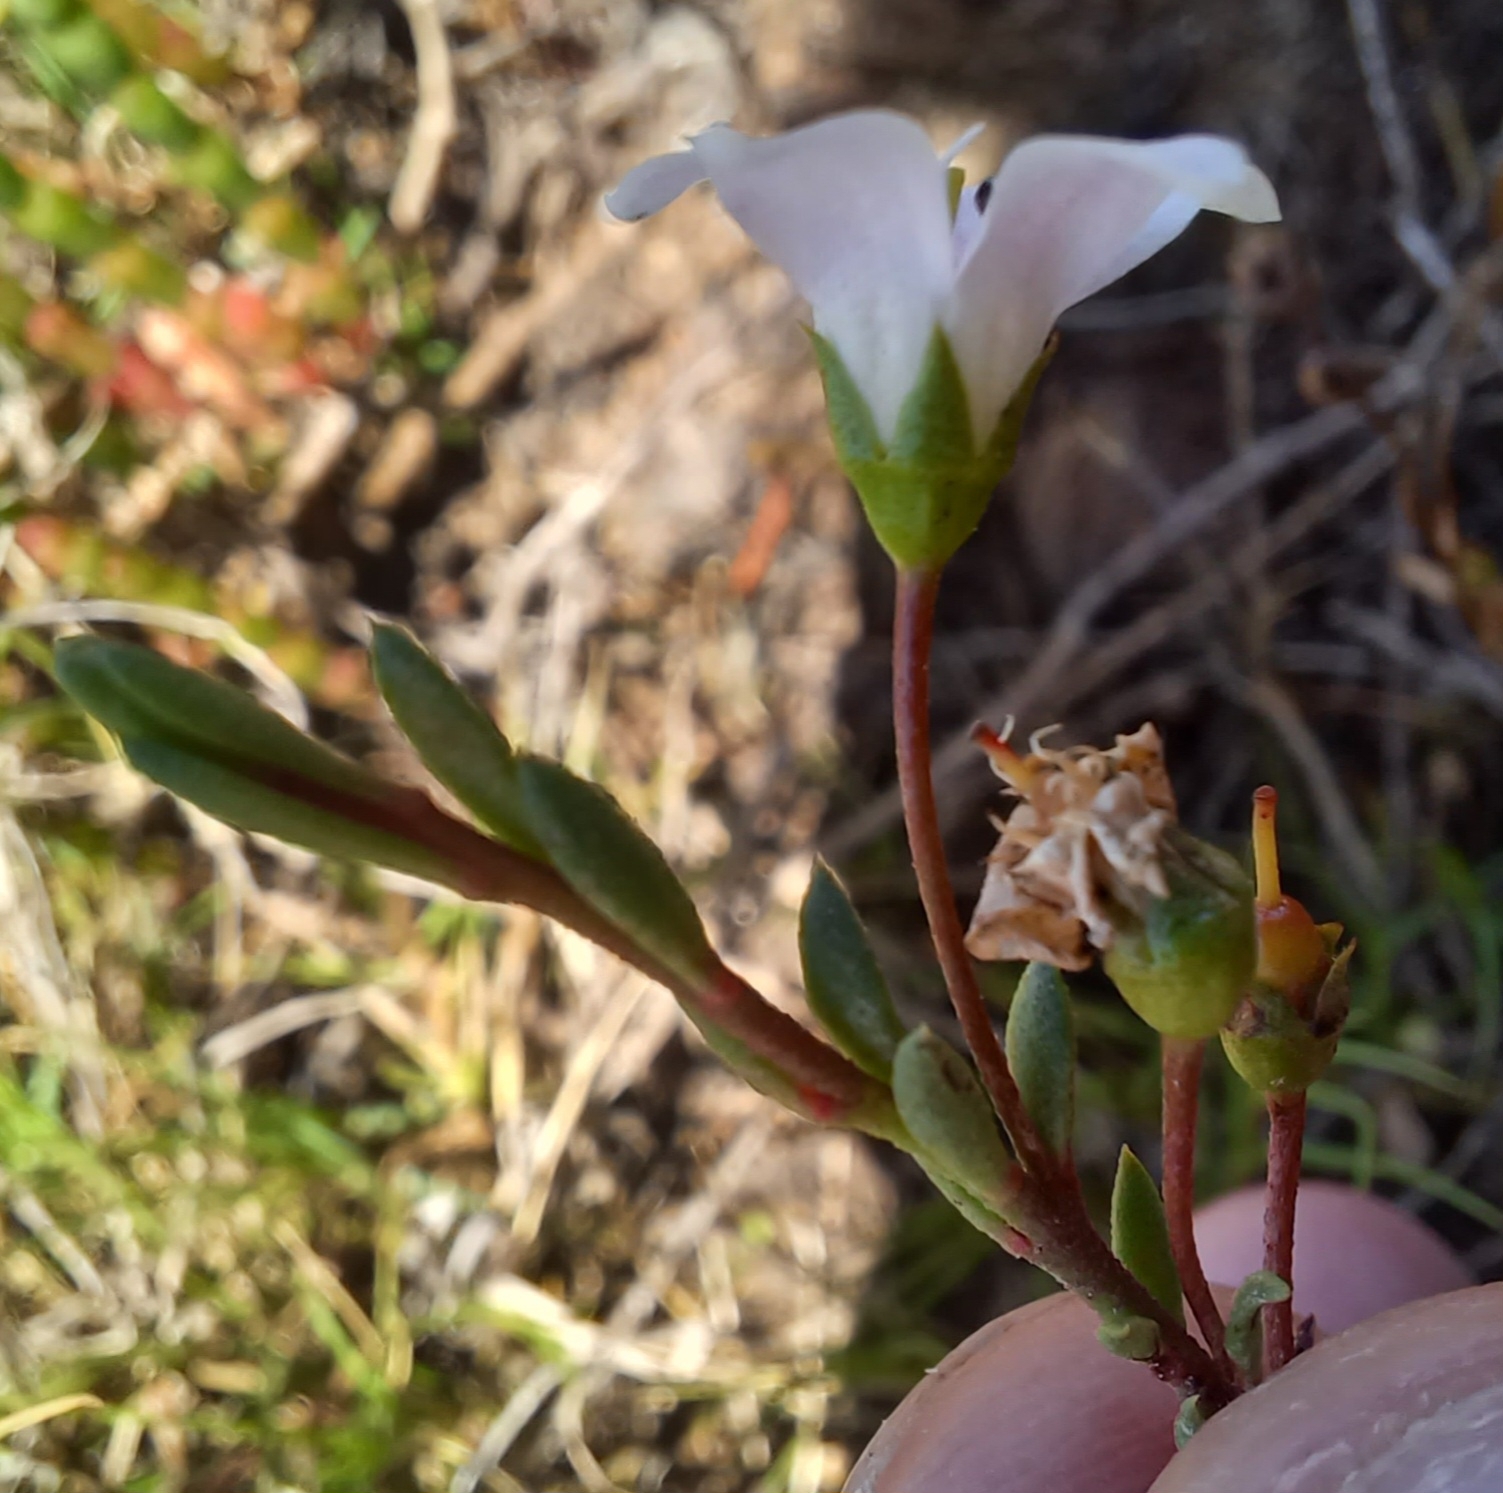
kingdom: Plantae
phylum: Tracheophyta
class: Magnoliopsida
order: Ericales
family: Primulaceae
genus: Samolus
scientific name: Samolus repens
